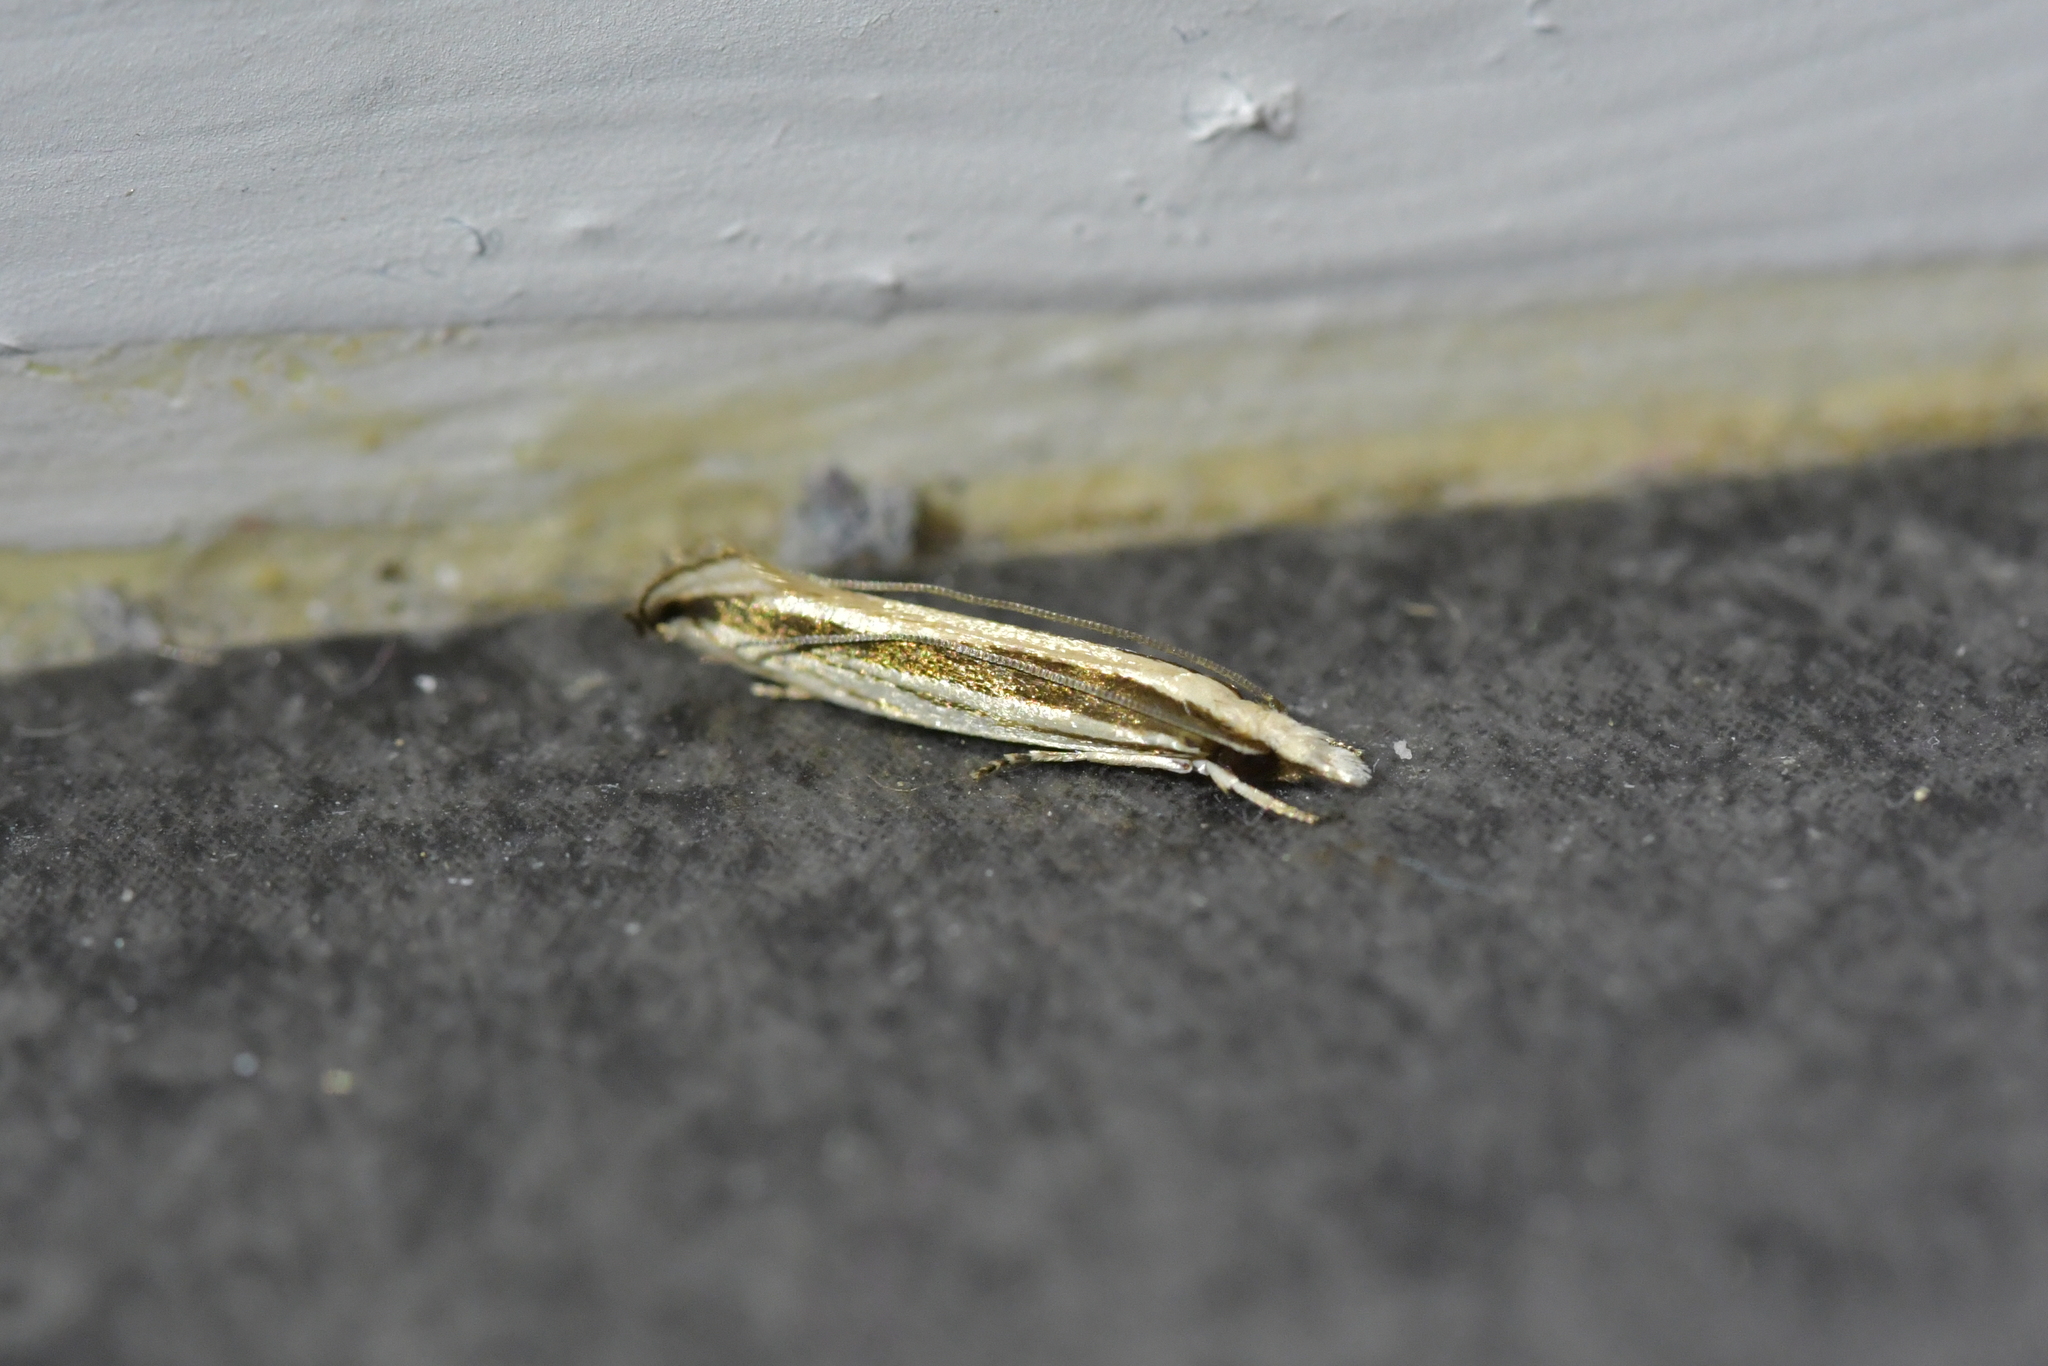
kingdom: Animalia
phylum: Arthropoda
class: Insecta
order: Lepidoptera
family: Tineidae
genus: Erechthias
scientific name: Erechthias stilbella
